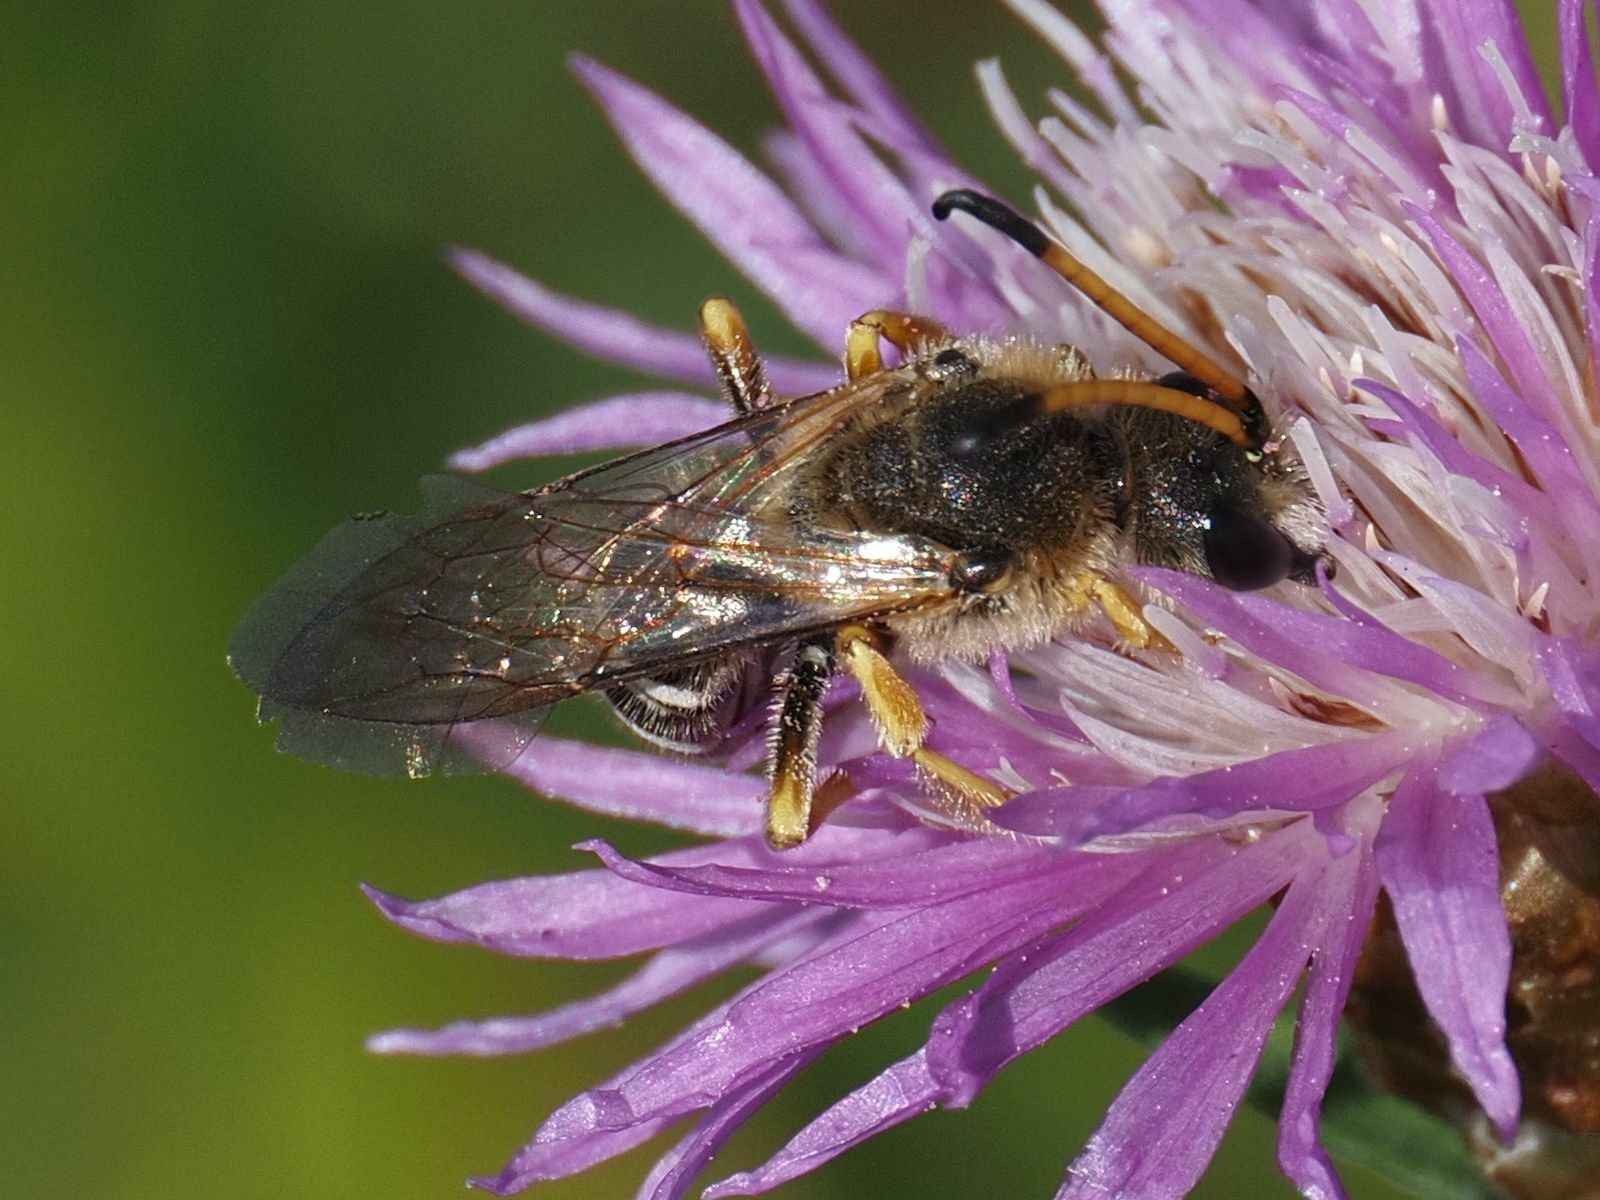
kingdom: Animalia
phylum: Arthropoda
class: Insecta
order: Hymenoptera
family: Halictidae
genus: Halictus
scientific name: Halictus sexcinctus
